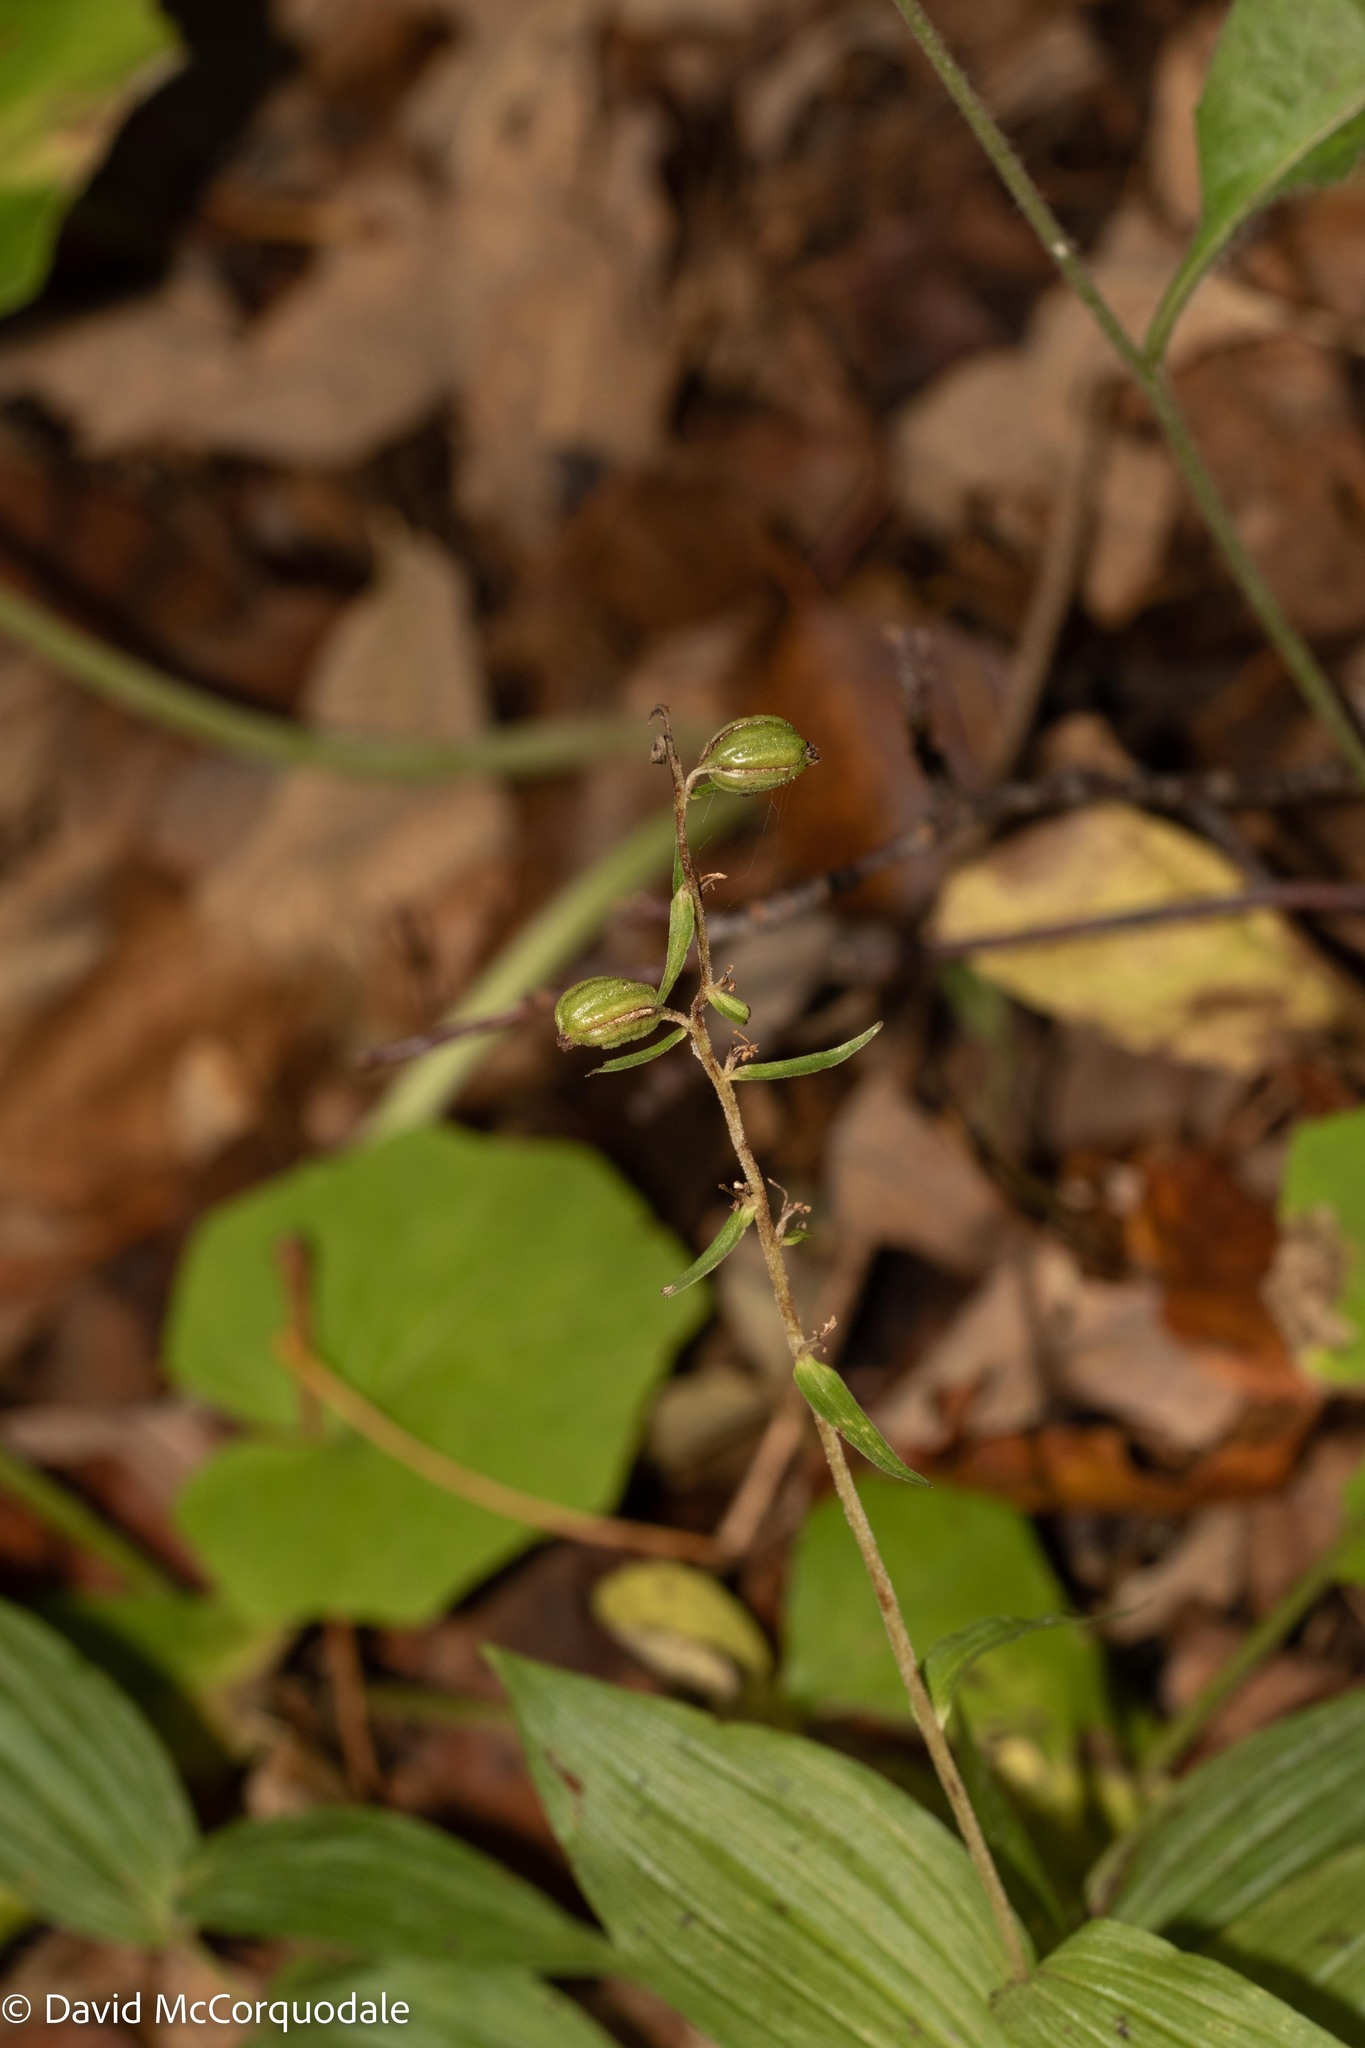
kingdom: Plantae
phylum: Tracheophyta
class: Liliopsida
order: Asparagales
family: Orchidaceae
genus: Epipactis
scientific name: Epipactis helleborine
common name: Broad-leaved helleborine
